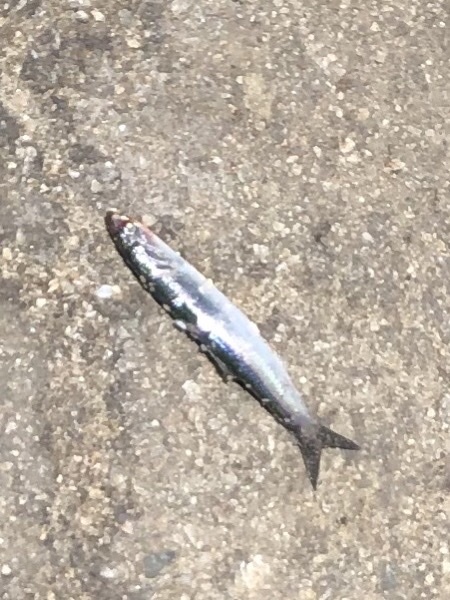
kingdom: Animalia
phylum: Chordata
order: Clupeiformes
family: Engraulidae
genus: Engraulis
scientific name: Engraulis mordax
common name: Northern anchovy
